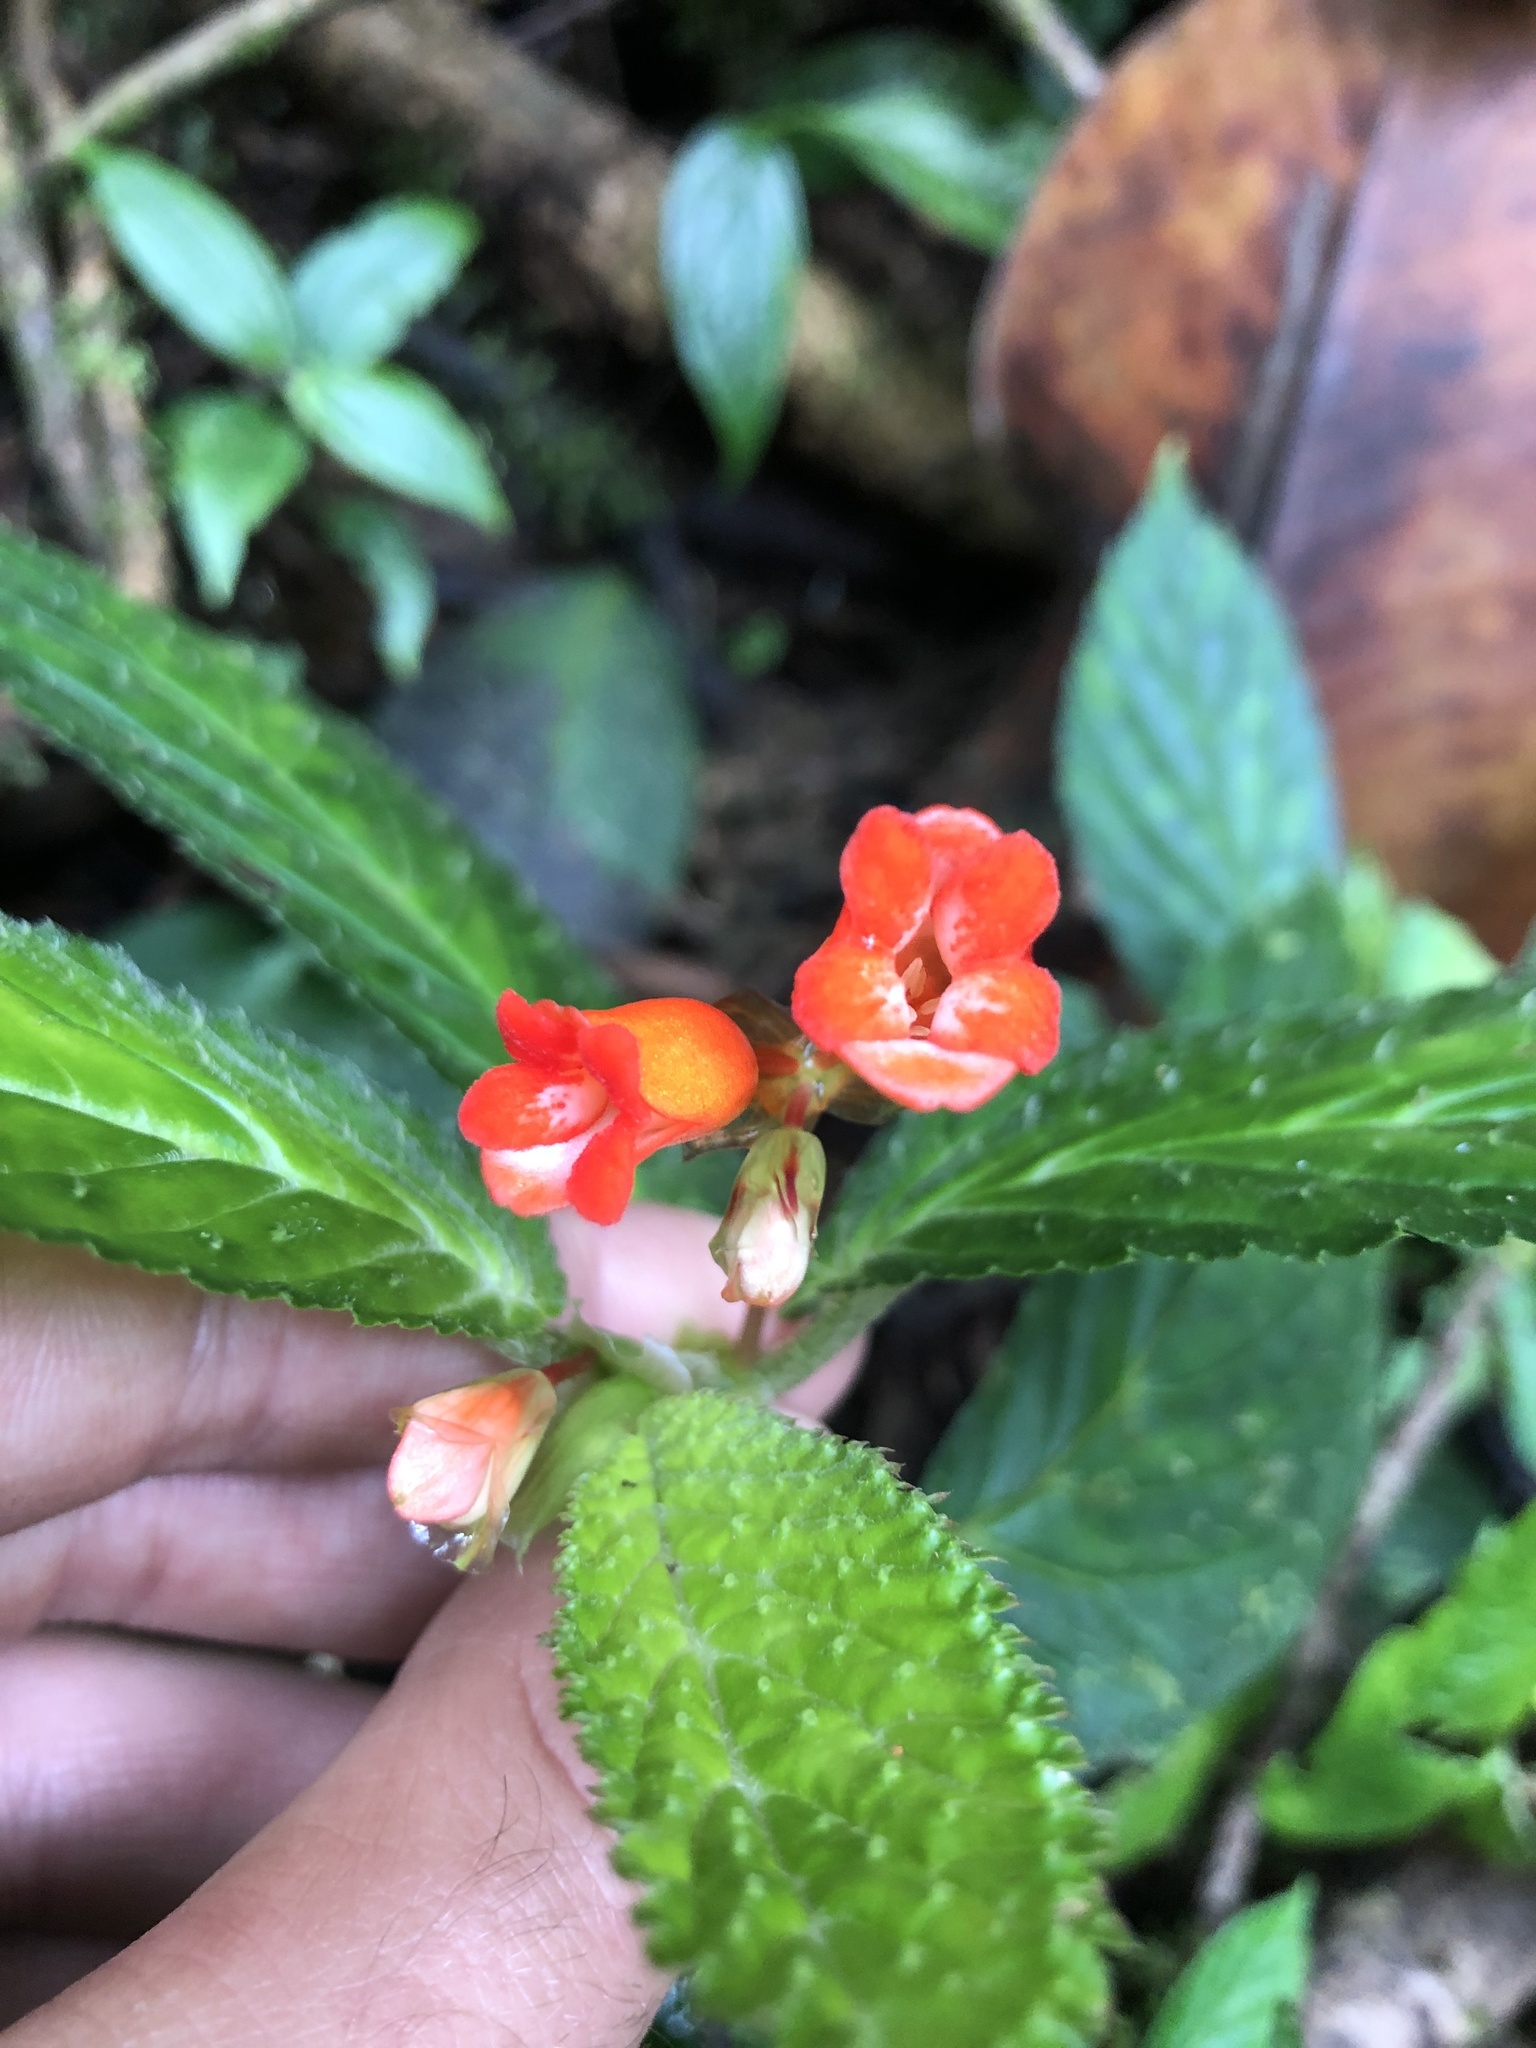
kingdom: Plantae
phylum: Tracheophyta
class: Magnoliopsida
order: Cucurbitales
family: Begoniaceae
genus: Begonia
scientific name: Begonia longirostris
